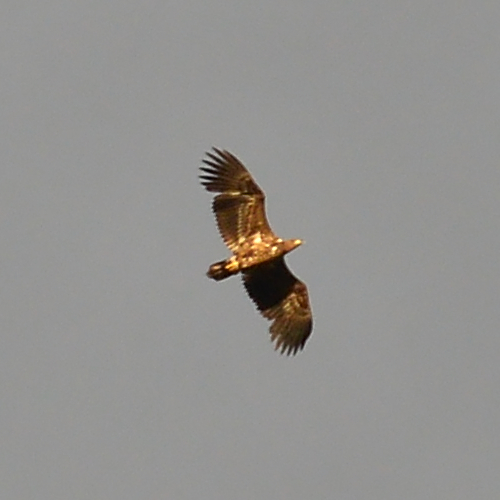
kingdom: Animalia
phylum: Chordata
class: Aves
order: Accipitriformes
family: Accipitridae
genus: Haliaeetus
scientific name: Haliaeetus albicilla
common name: White-tailed eagle
